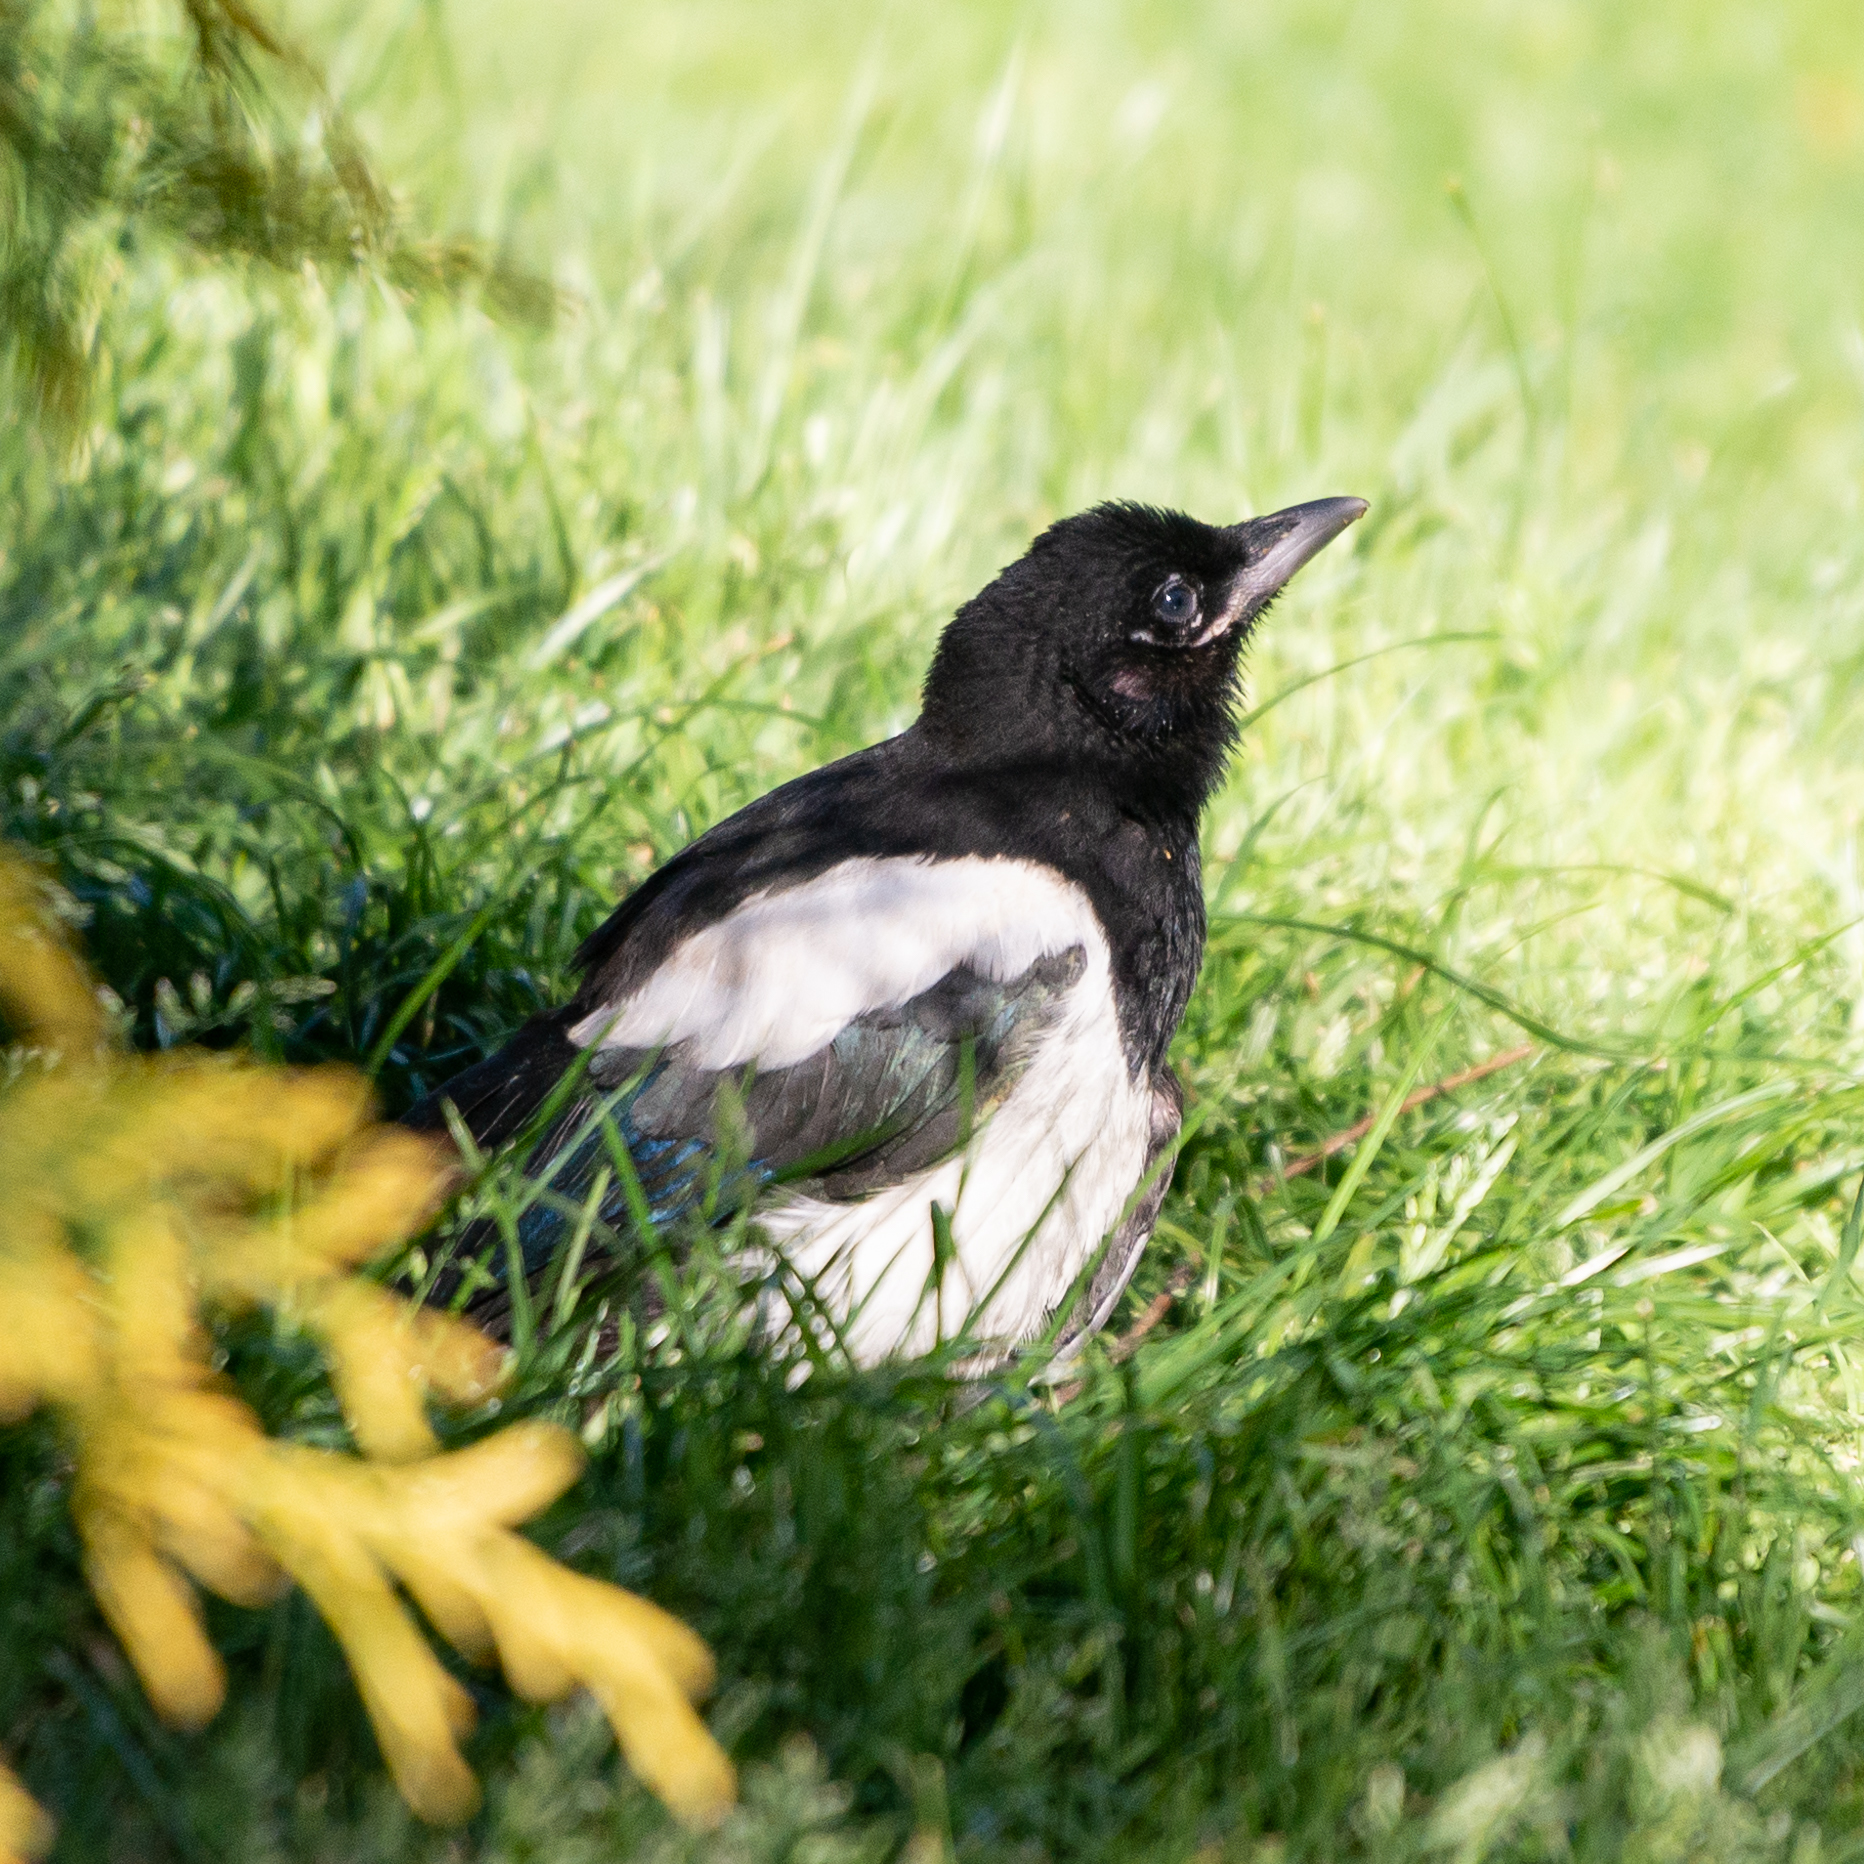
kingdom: Animalia
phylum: Chordata
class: Aves
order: Passeriformes
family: Corvidae
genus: Pica
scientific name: Pica pica
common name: Eurasian magpie
